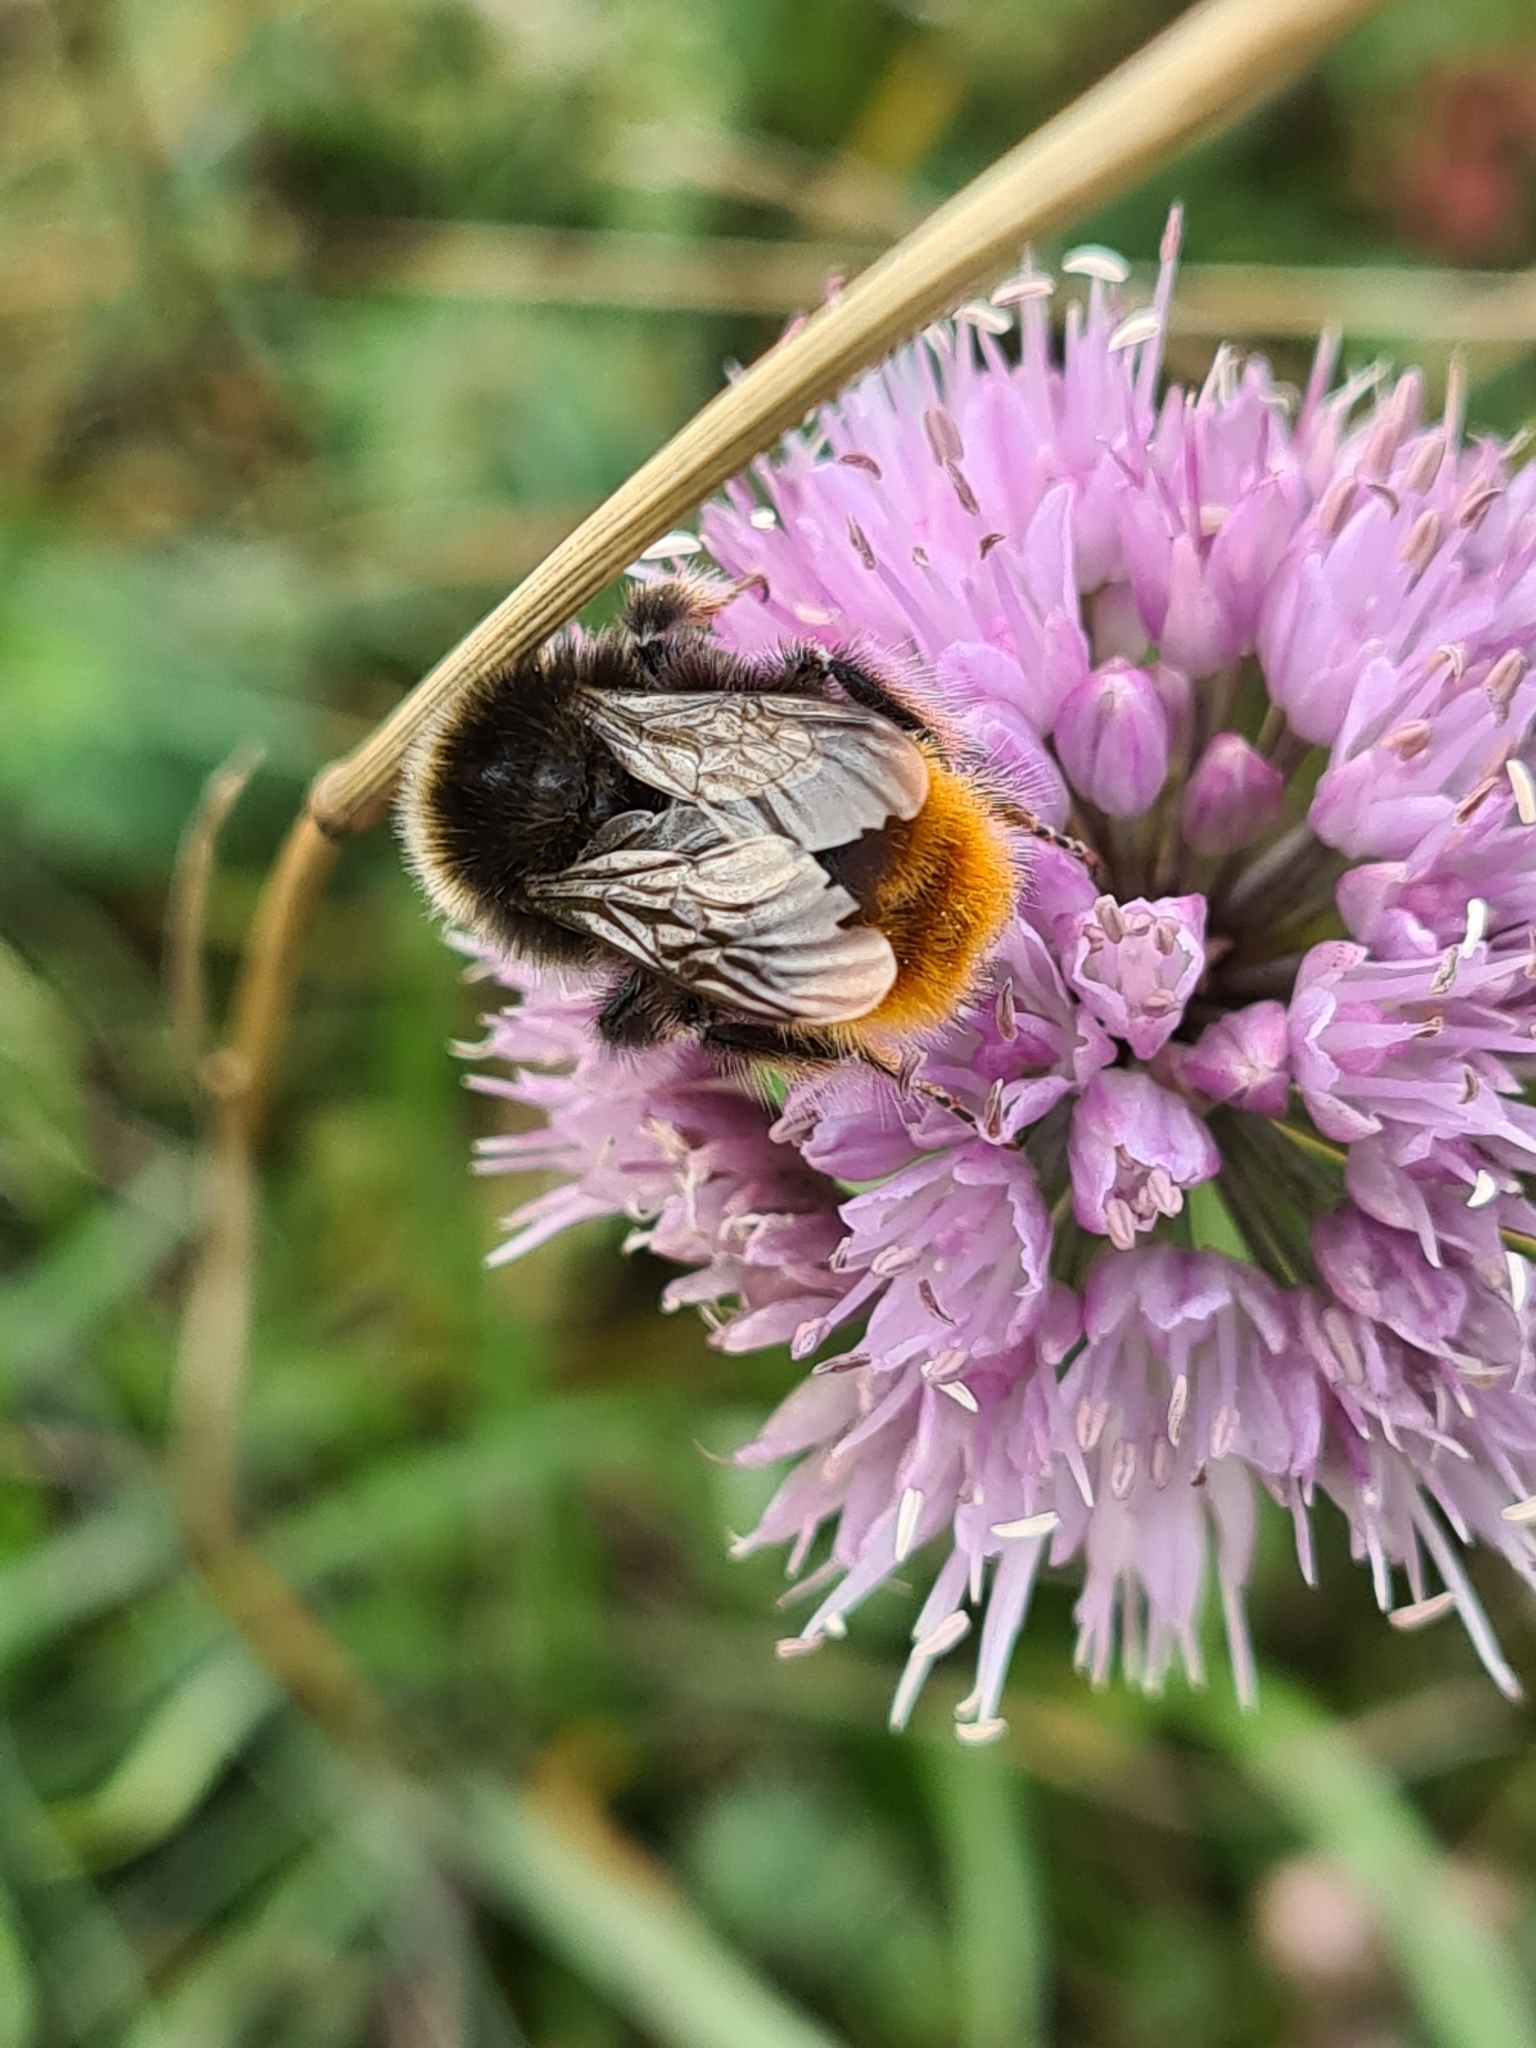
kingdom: Animalia
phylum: Arthropoda
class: Insecta
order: Hymenoptera
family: Apidae
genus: Bombus
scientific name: Bombus lapidarius
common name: Large red-tailed humble-bee
